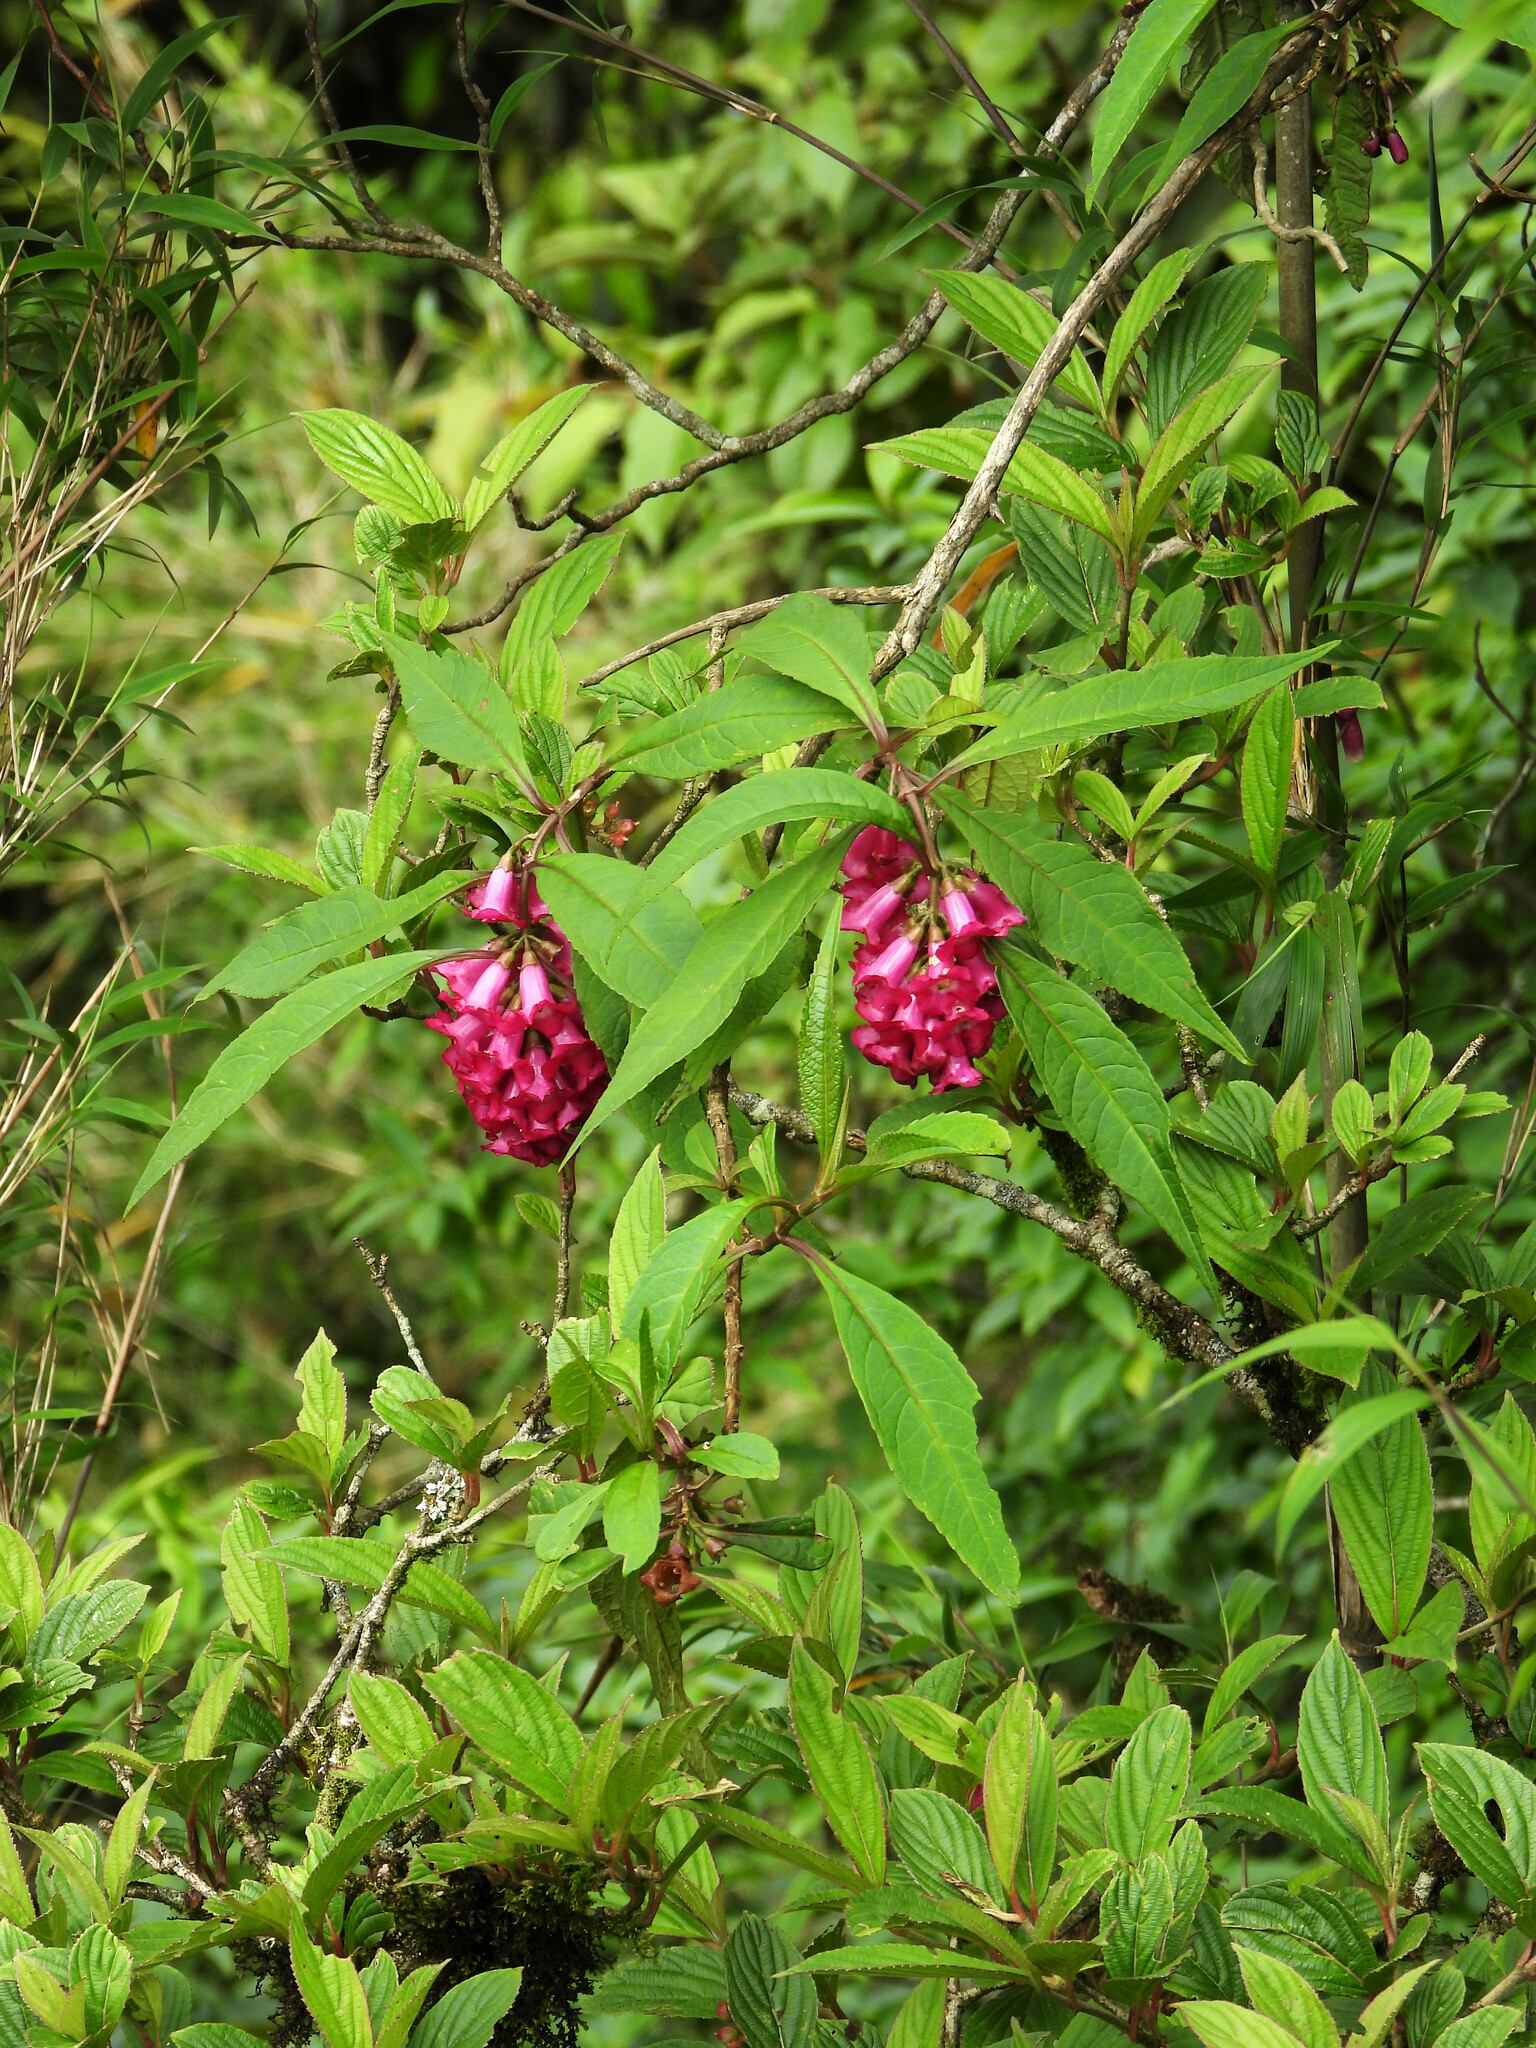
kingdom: Plantae
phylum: Tracheophyta
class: Magnoliopsida
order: Lamiales
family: Scrophulariaceae
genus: Buddleja
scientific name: Buddleja colvilei
